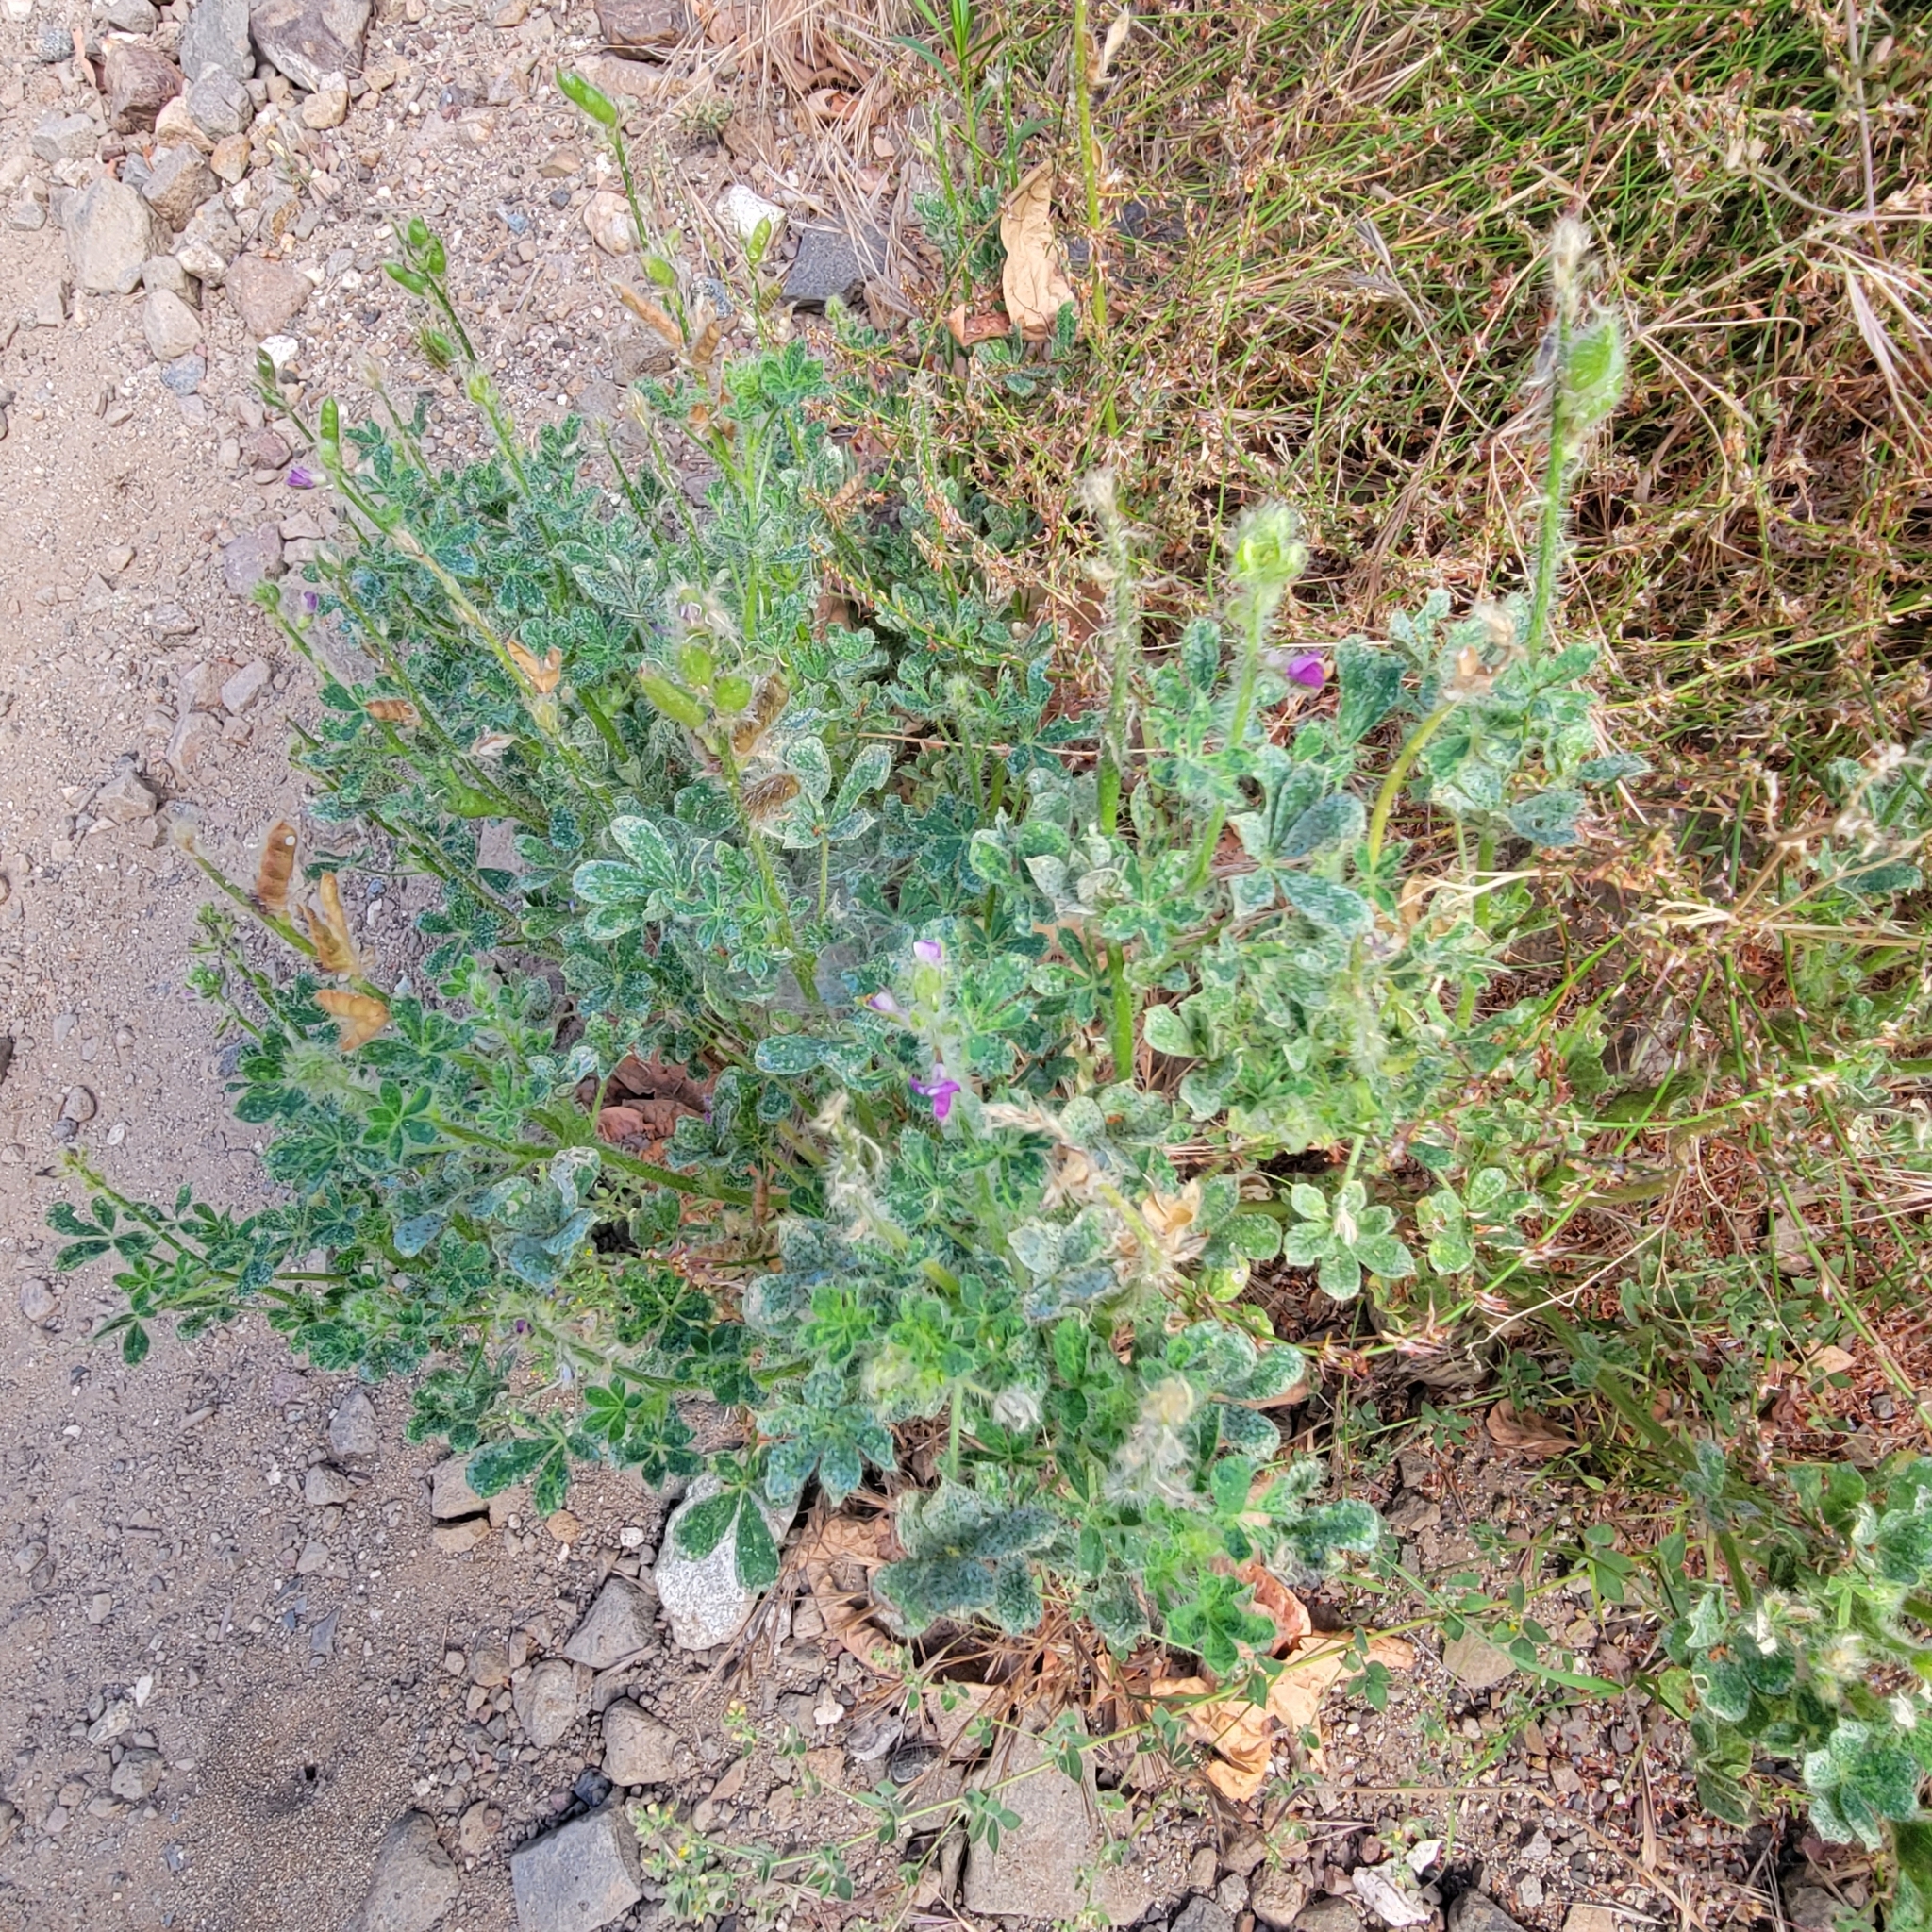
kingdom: Plantae
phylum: Tracheophyta
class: Magnoliopsida
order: Fabales
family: Fabaceae
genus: Lupinus
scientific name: Lupinus hirsutissimus
